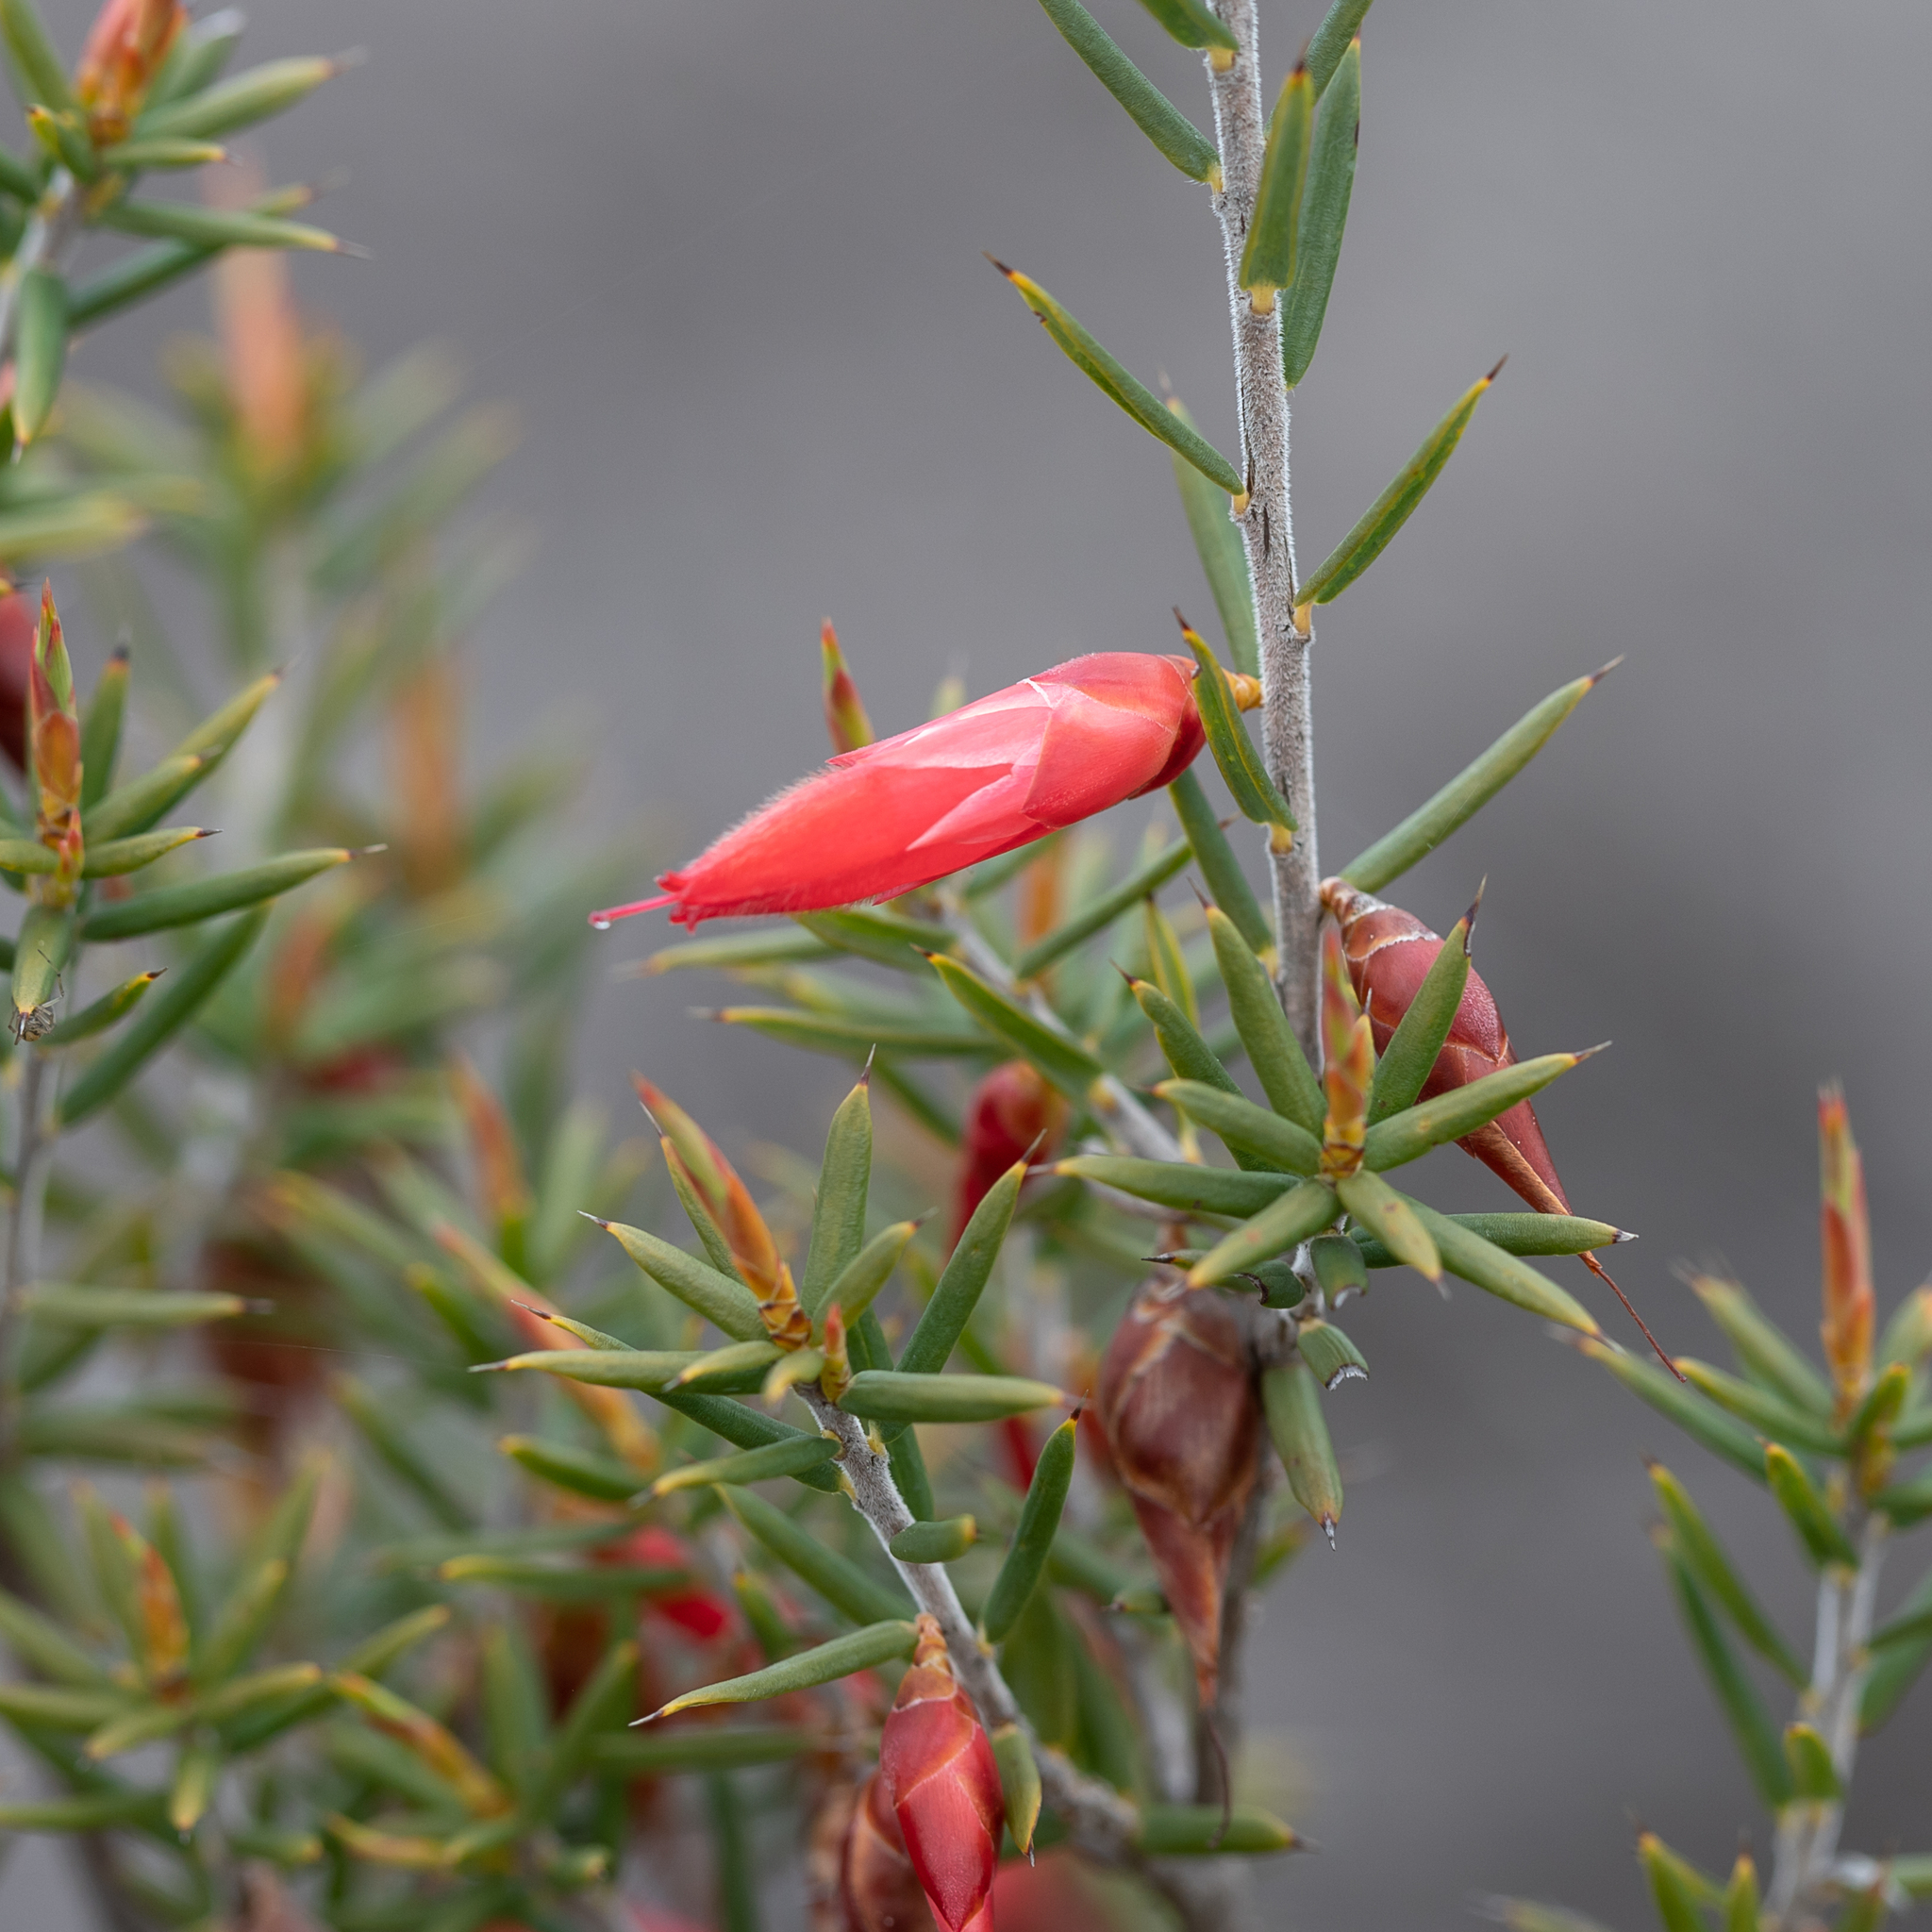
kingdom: Plantae
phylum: Tracheophyta
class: Magnoliopsida
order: Ericales
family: Ericaceae
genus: Stenanthera
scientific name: Stenanthera conostephioides
